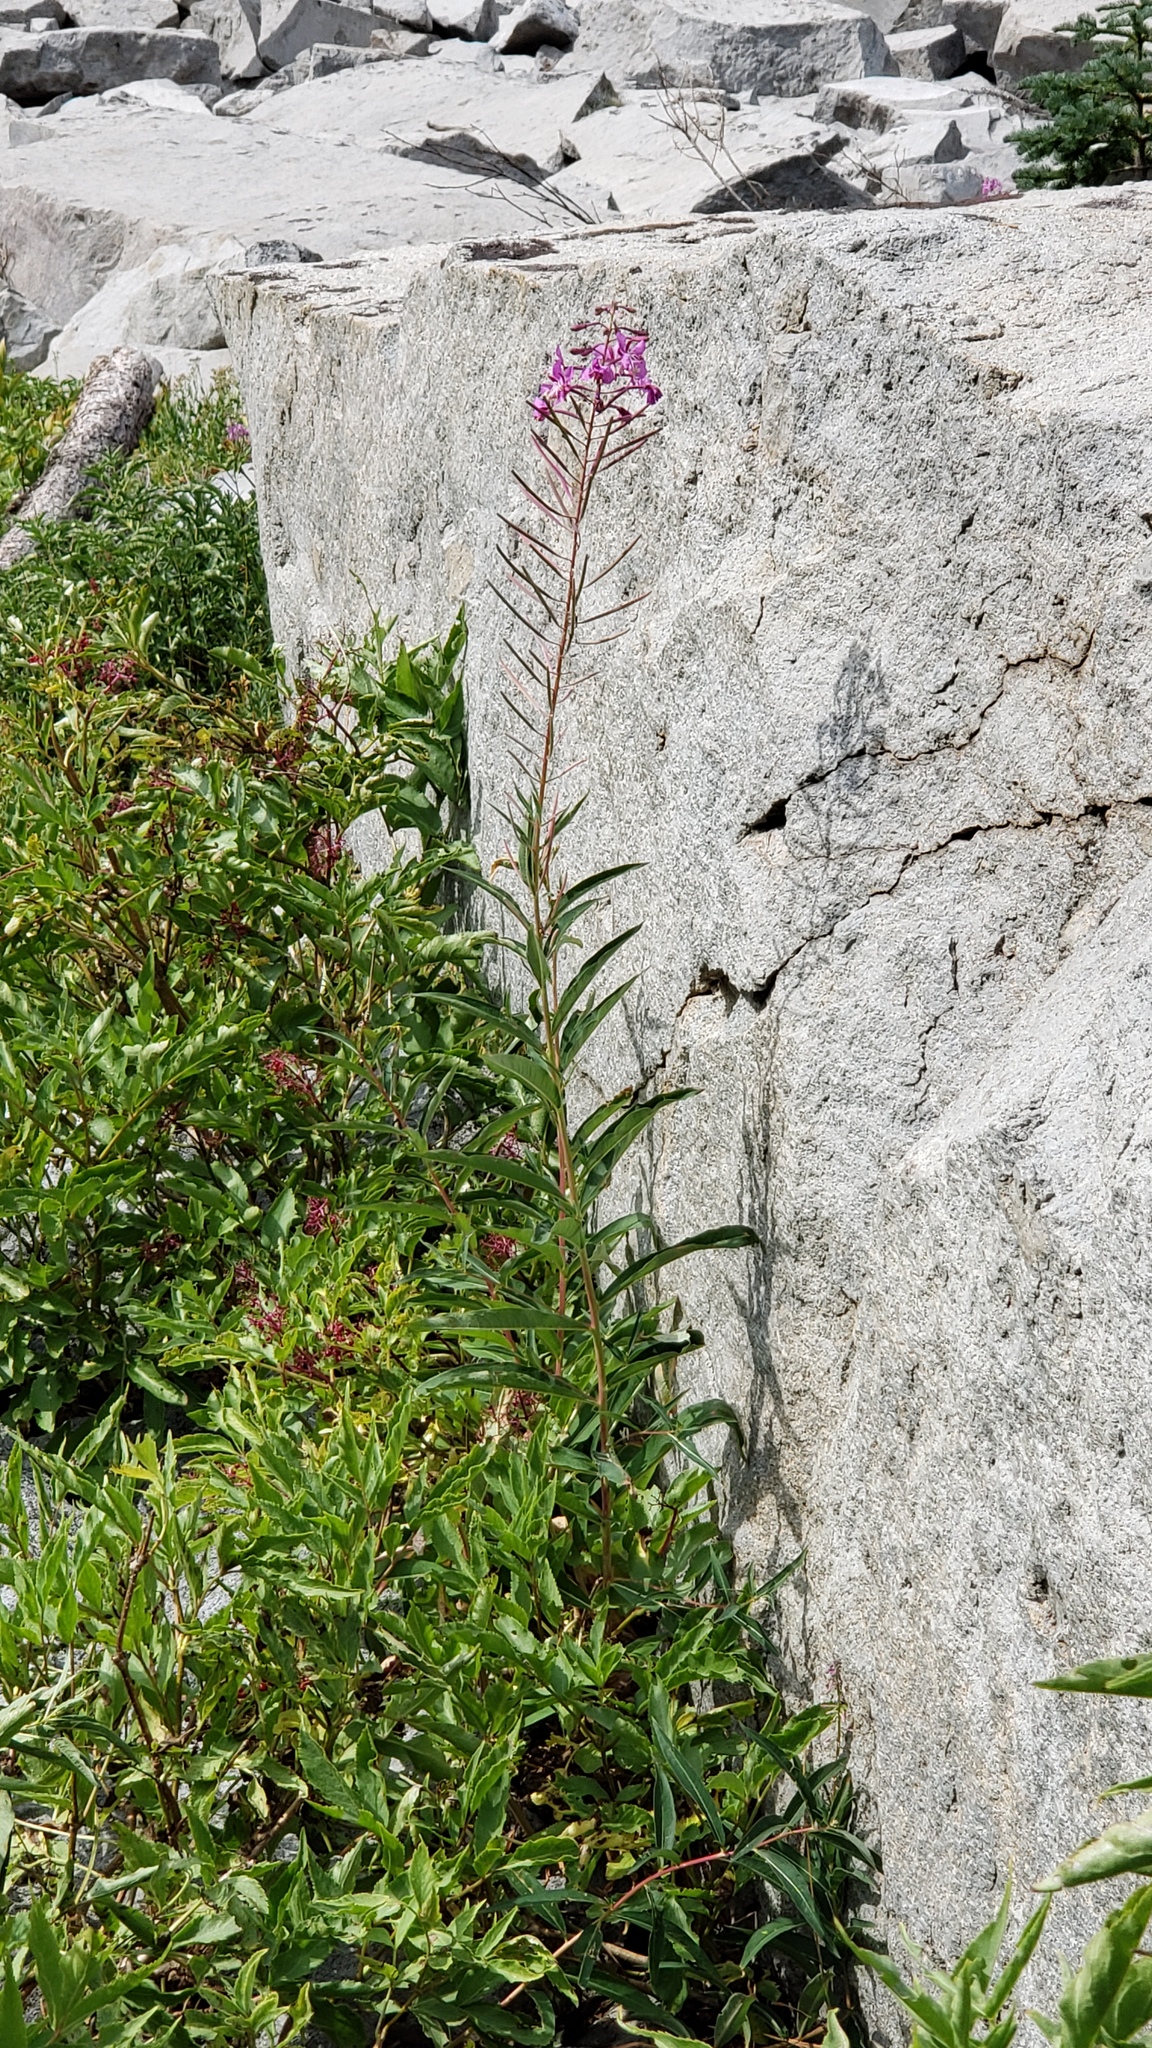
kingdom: Plantae
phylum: Tracheophyta
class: Magnoliopsida
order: Myrtales
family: Onagraceae
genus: Chamaenerion
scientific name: Chamaenerion angustifolium
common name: Fireweed
